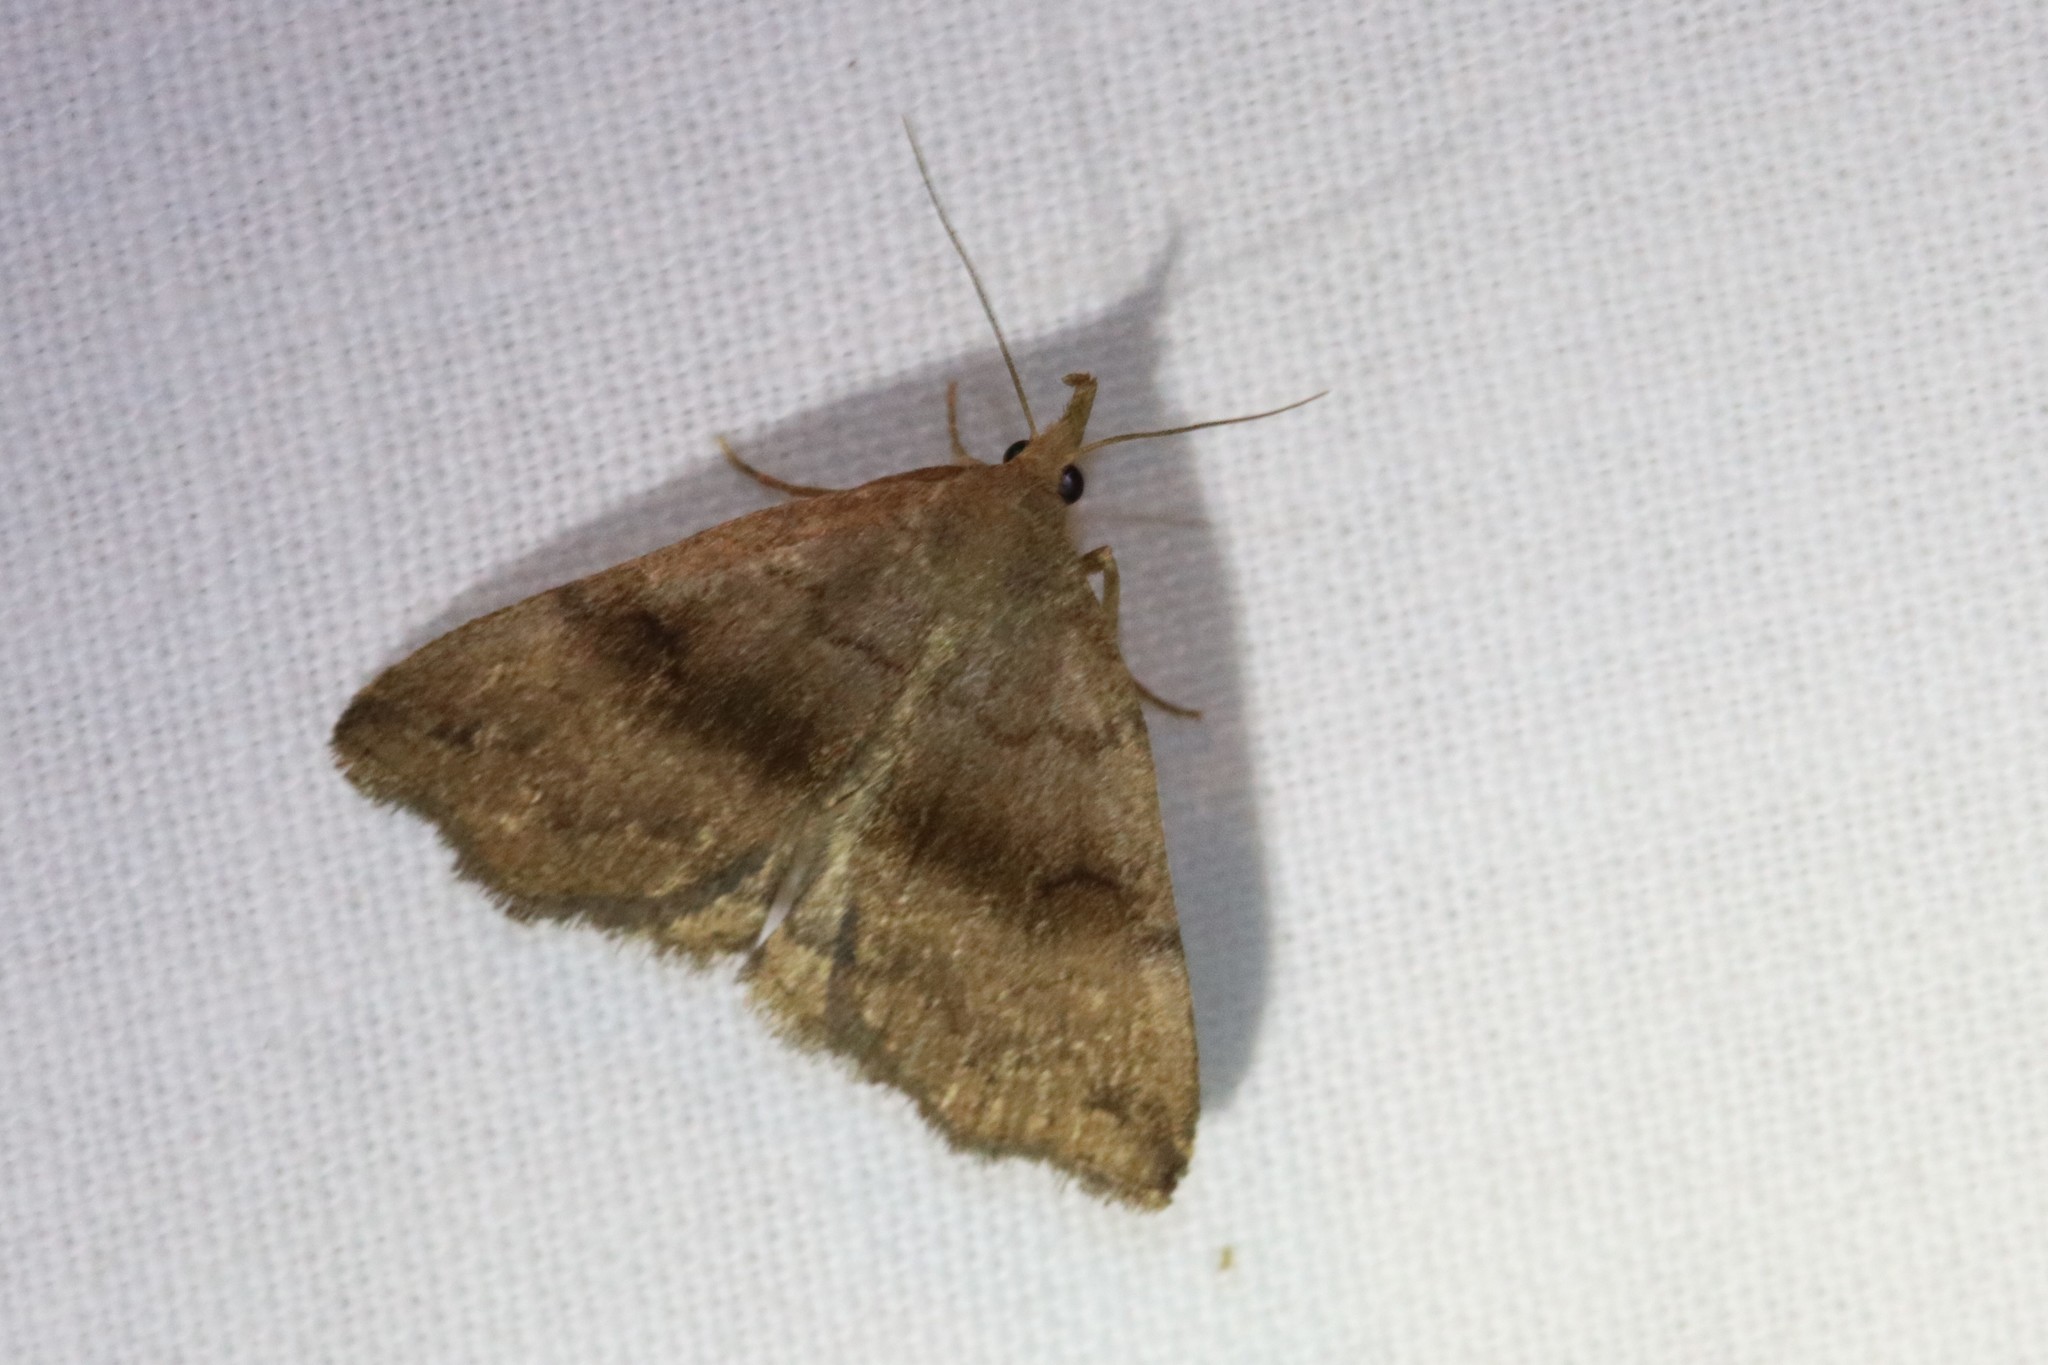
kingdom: Animalia
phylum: Arthropoda
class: Insecta
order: Lepidoptera
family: Erebidae
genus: Phalaenostola
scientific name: Phalaenostola eumelusalis
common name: Dark phalaenostola moth
